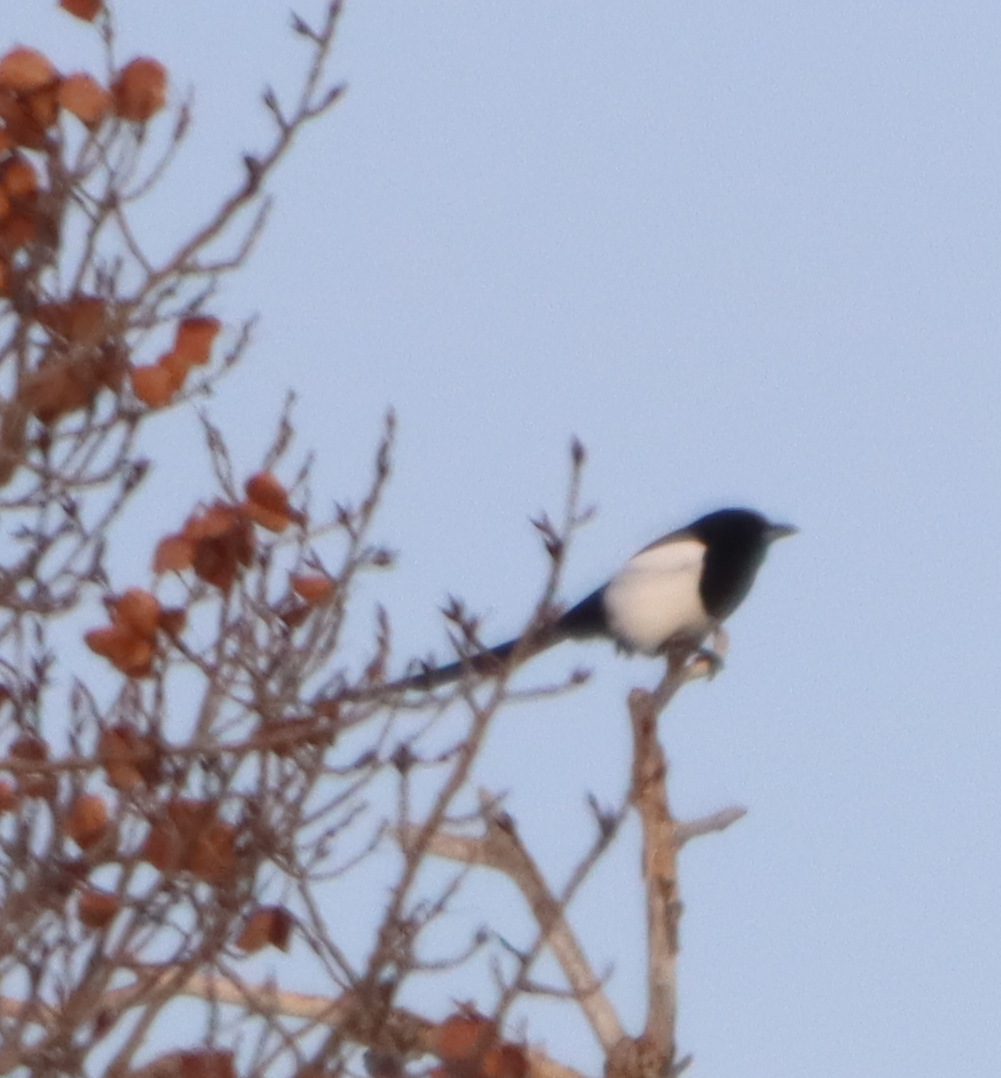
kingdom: Animalia
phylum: Chordata
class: Aves
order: Passeriformes
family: Corvidae
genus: Pica
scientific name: Pica hudsonia
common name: Black-billed magpie
